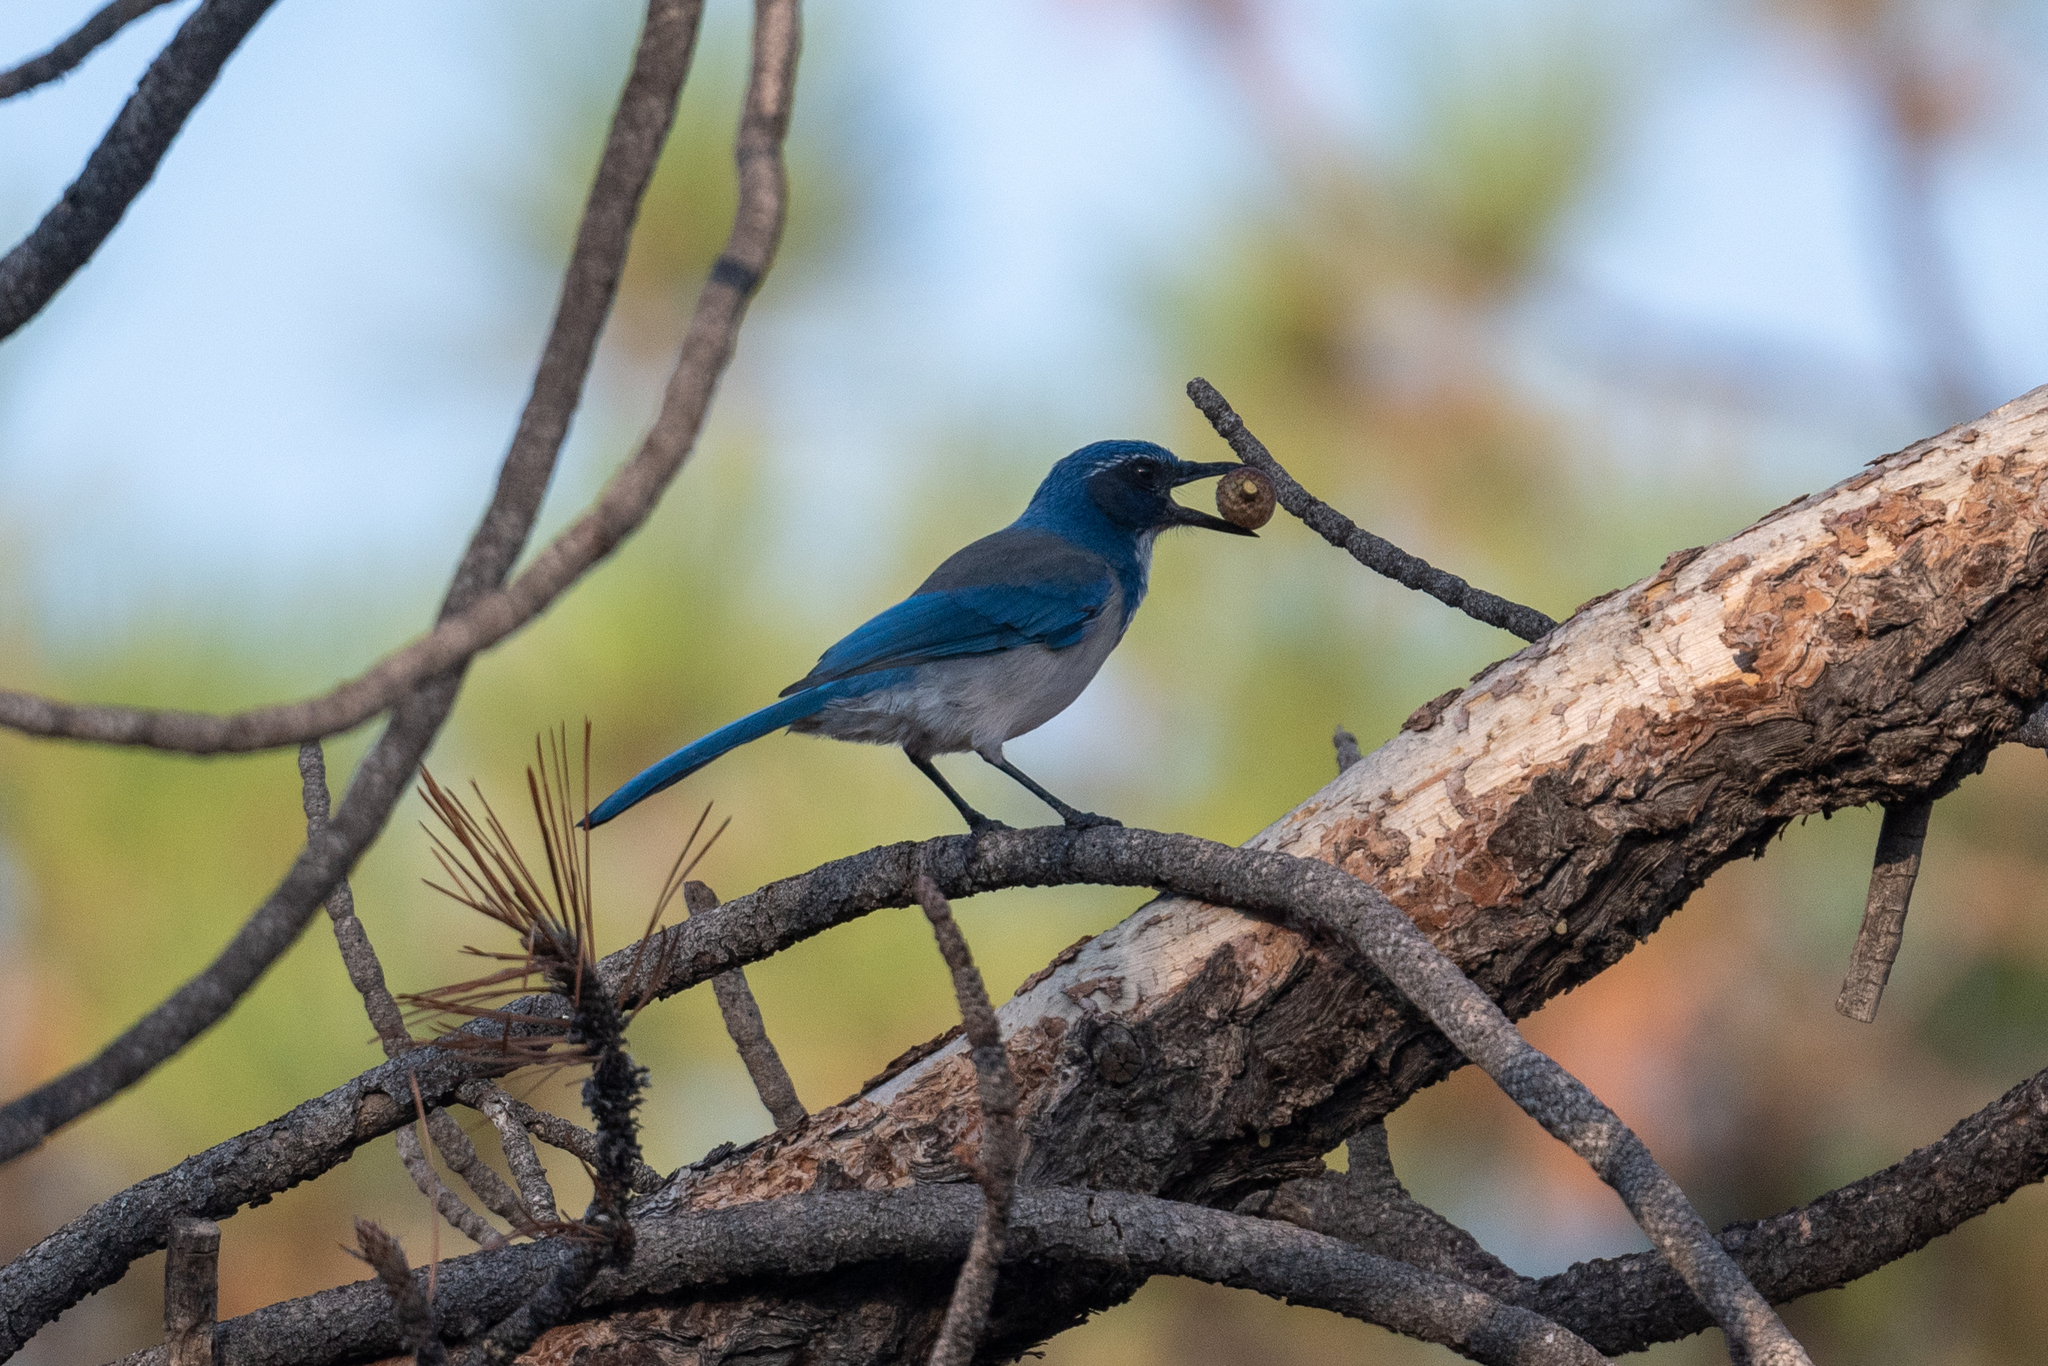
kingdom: Animalia
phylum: Chordata
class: Aves
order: Passeriformes
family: Corvidae
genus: Aphelocoma
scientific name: Aphelocoma californica
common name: California scrub-jay
